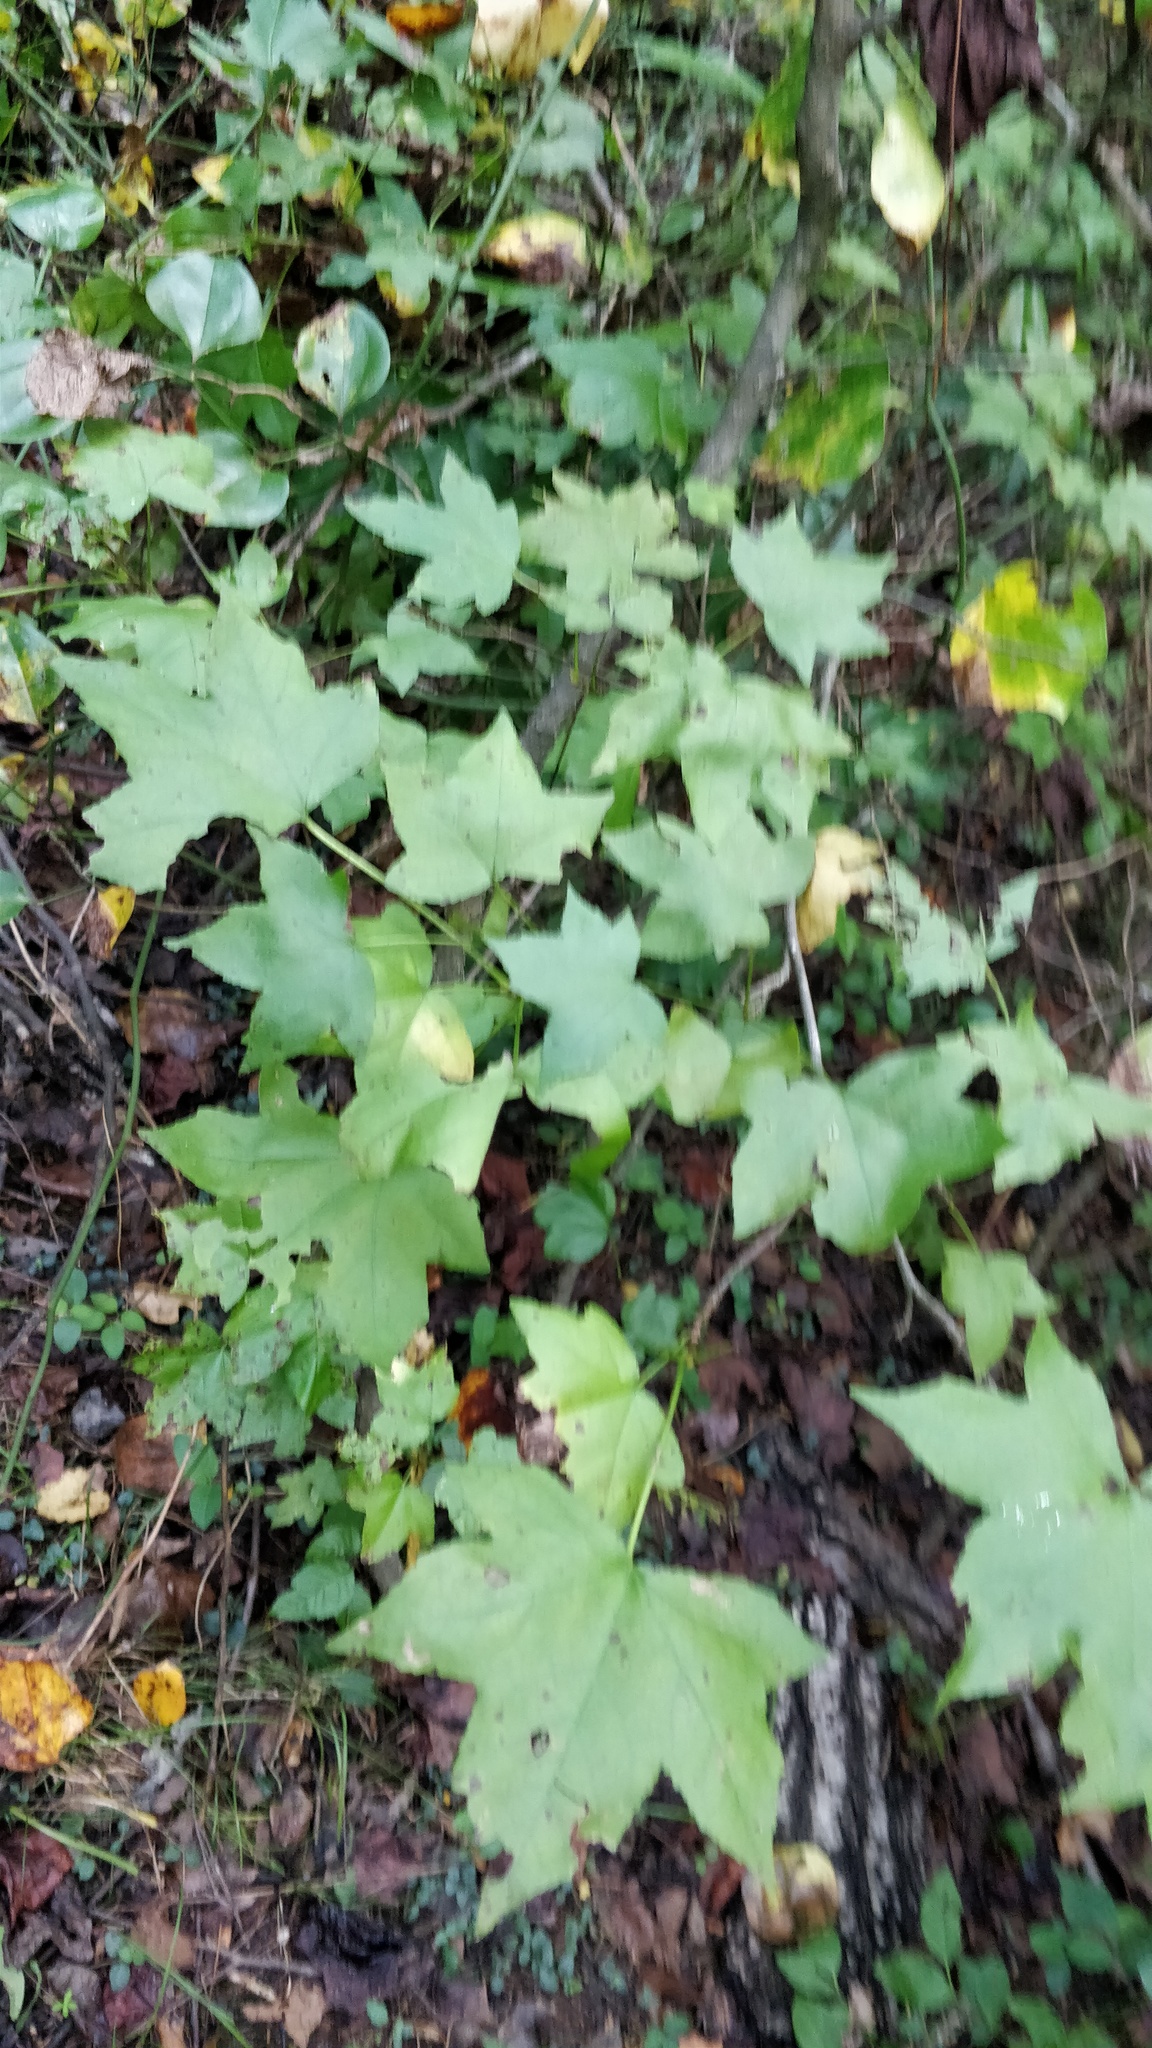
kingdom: Plantae
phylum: Tracheophyta
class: Magnoliopsida
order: Saxifragales
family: Altingiaceae
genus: Liquidambar
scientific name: Liquidambar styraciflua
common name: Sweet gum
